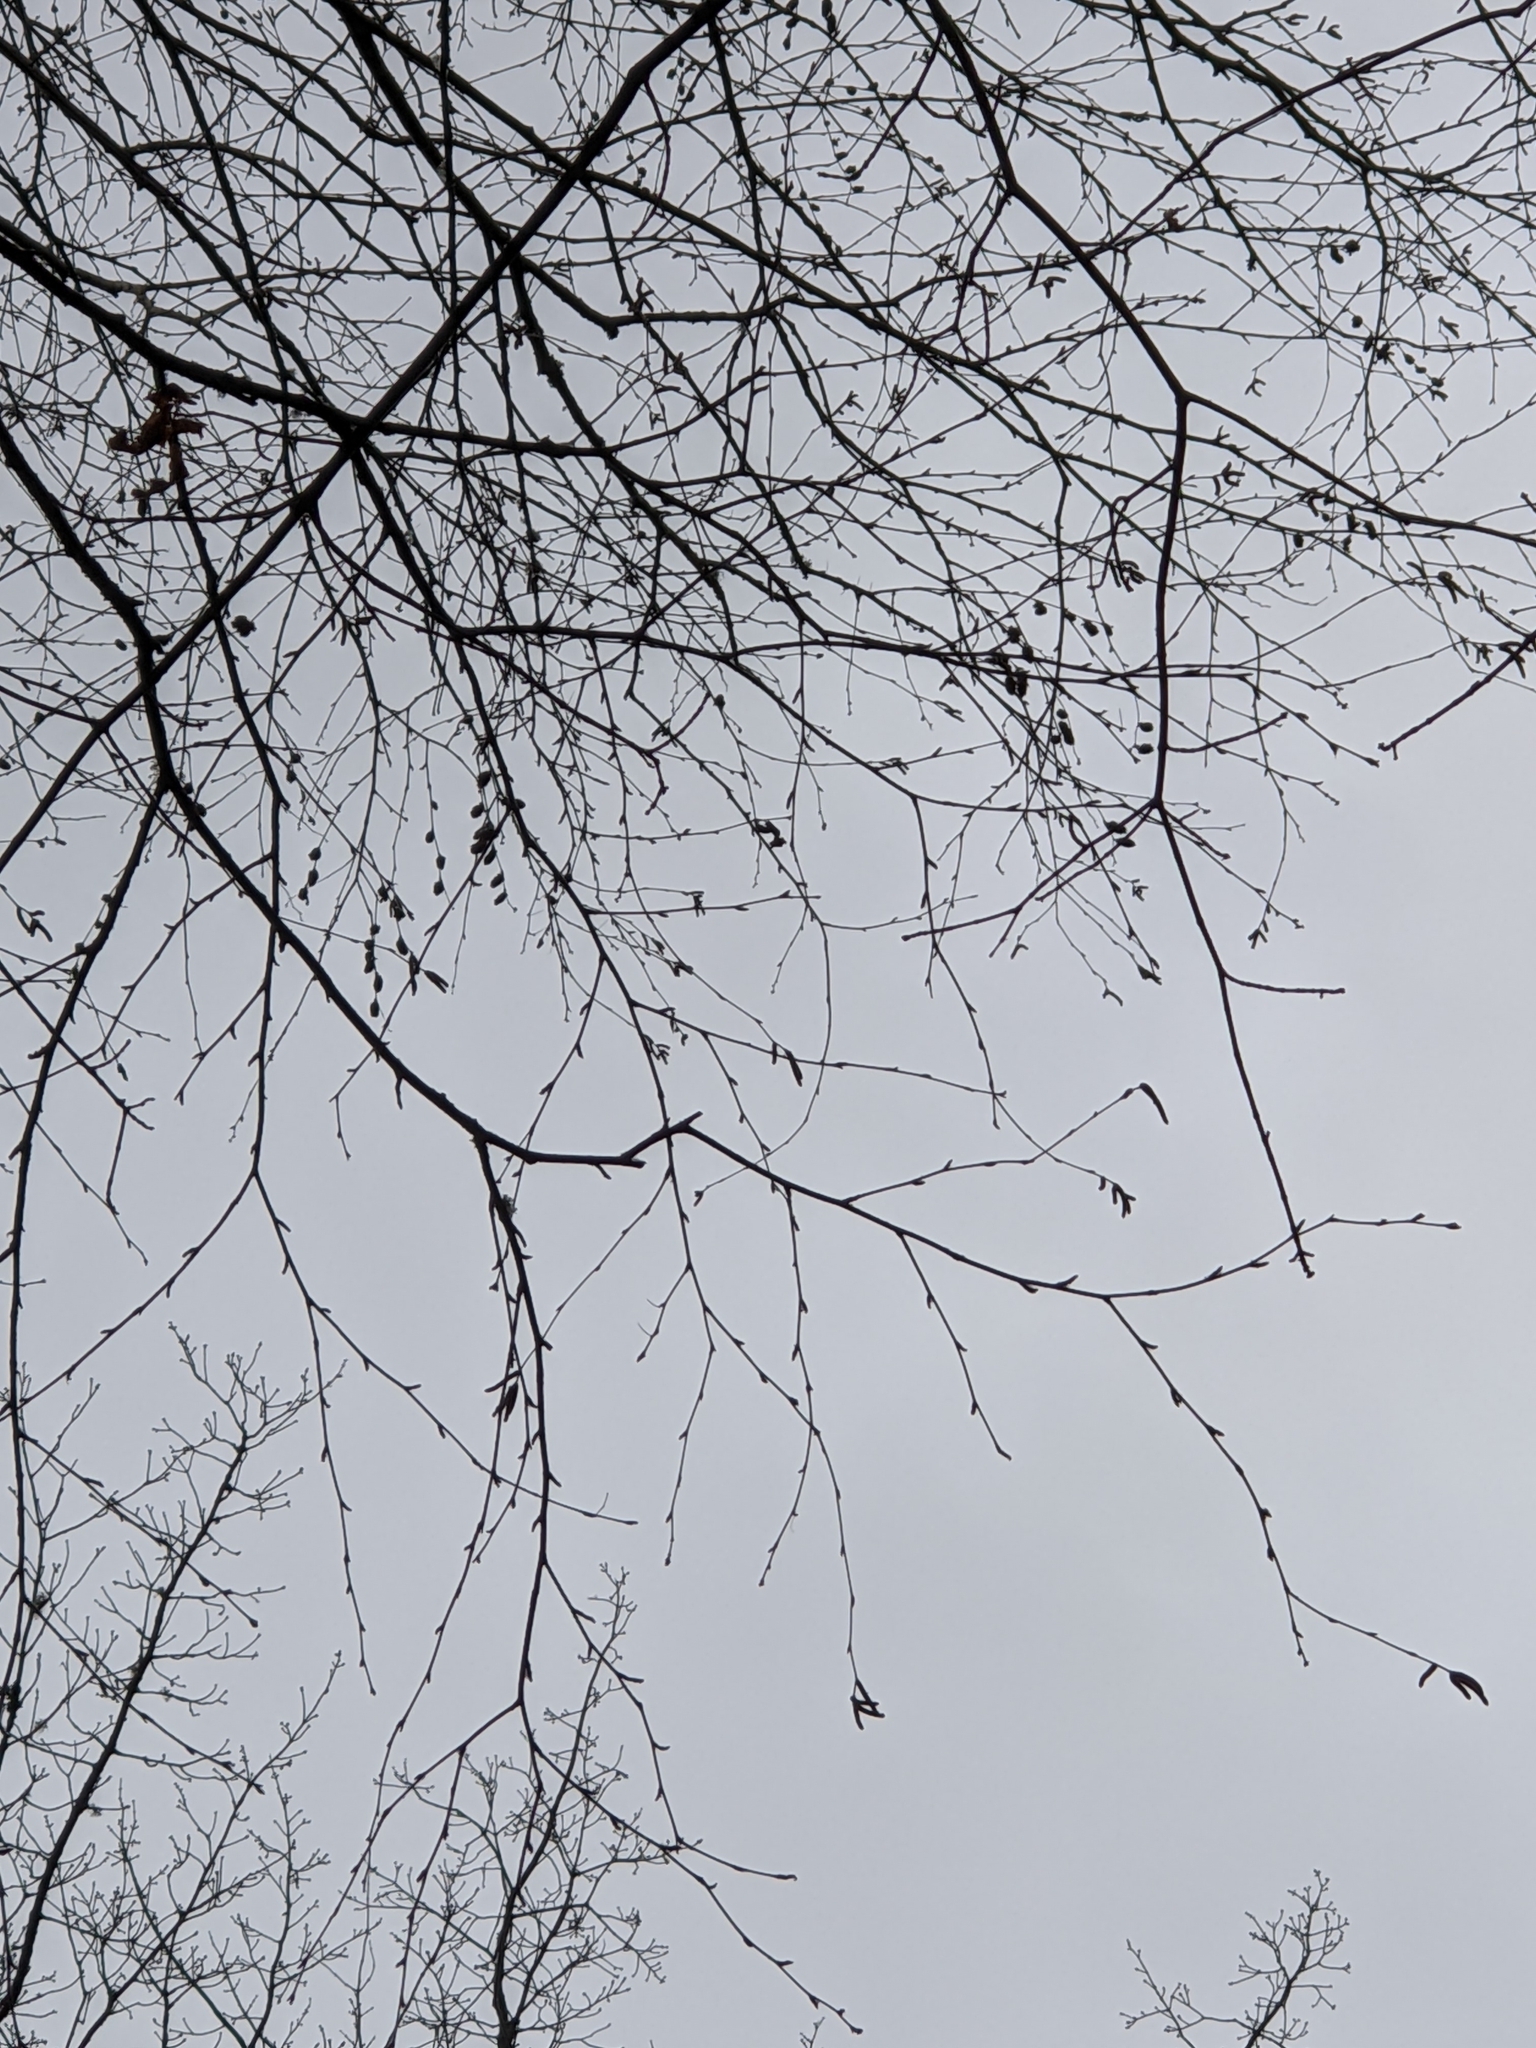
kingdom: Plantae
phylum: Tracheophyta
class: Magnoliopsida
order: Fagales
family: Betulaceae
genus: Betula
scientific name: Betula alleghaniensis
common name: Yellow birch
